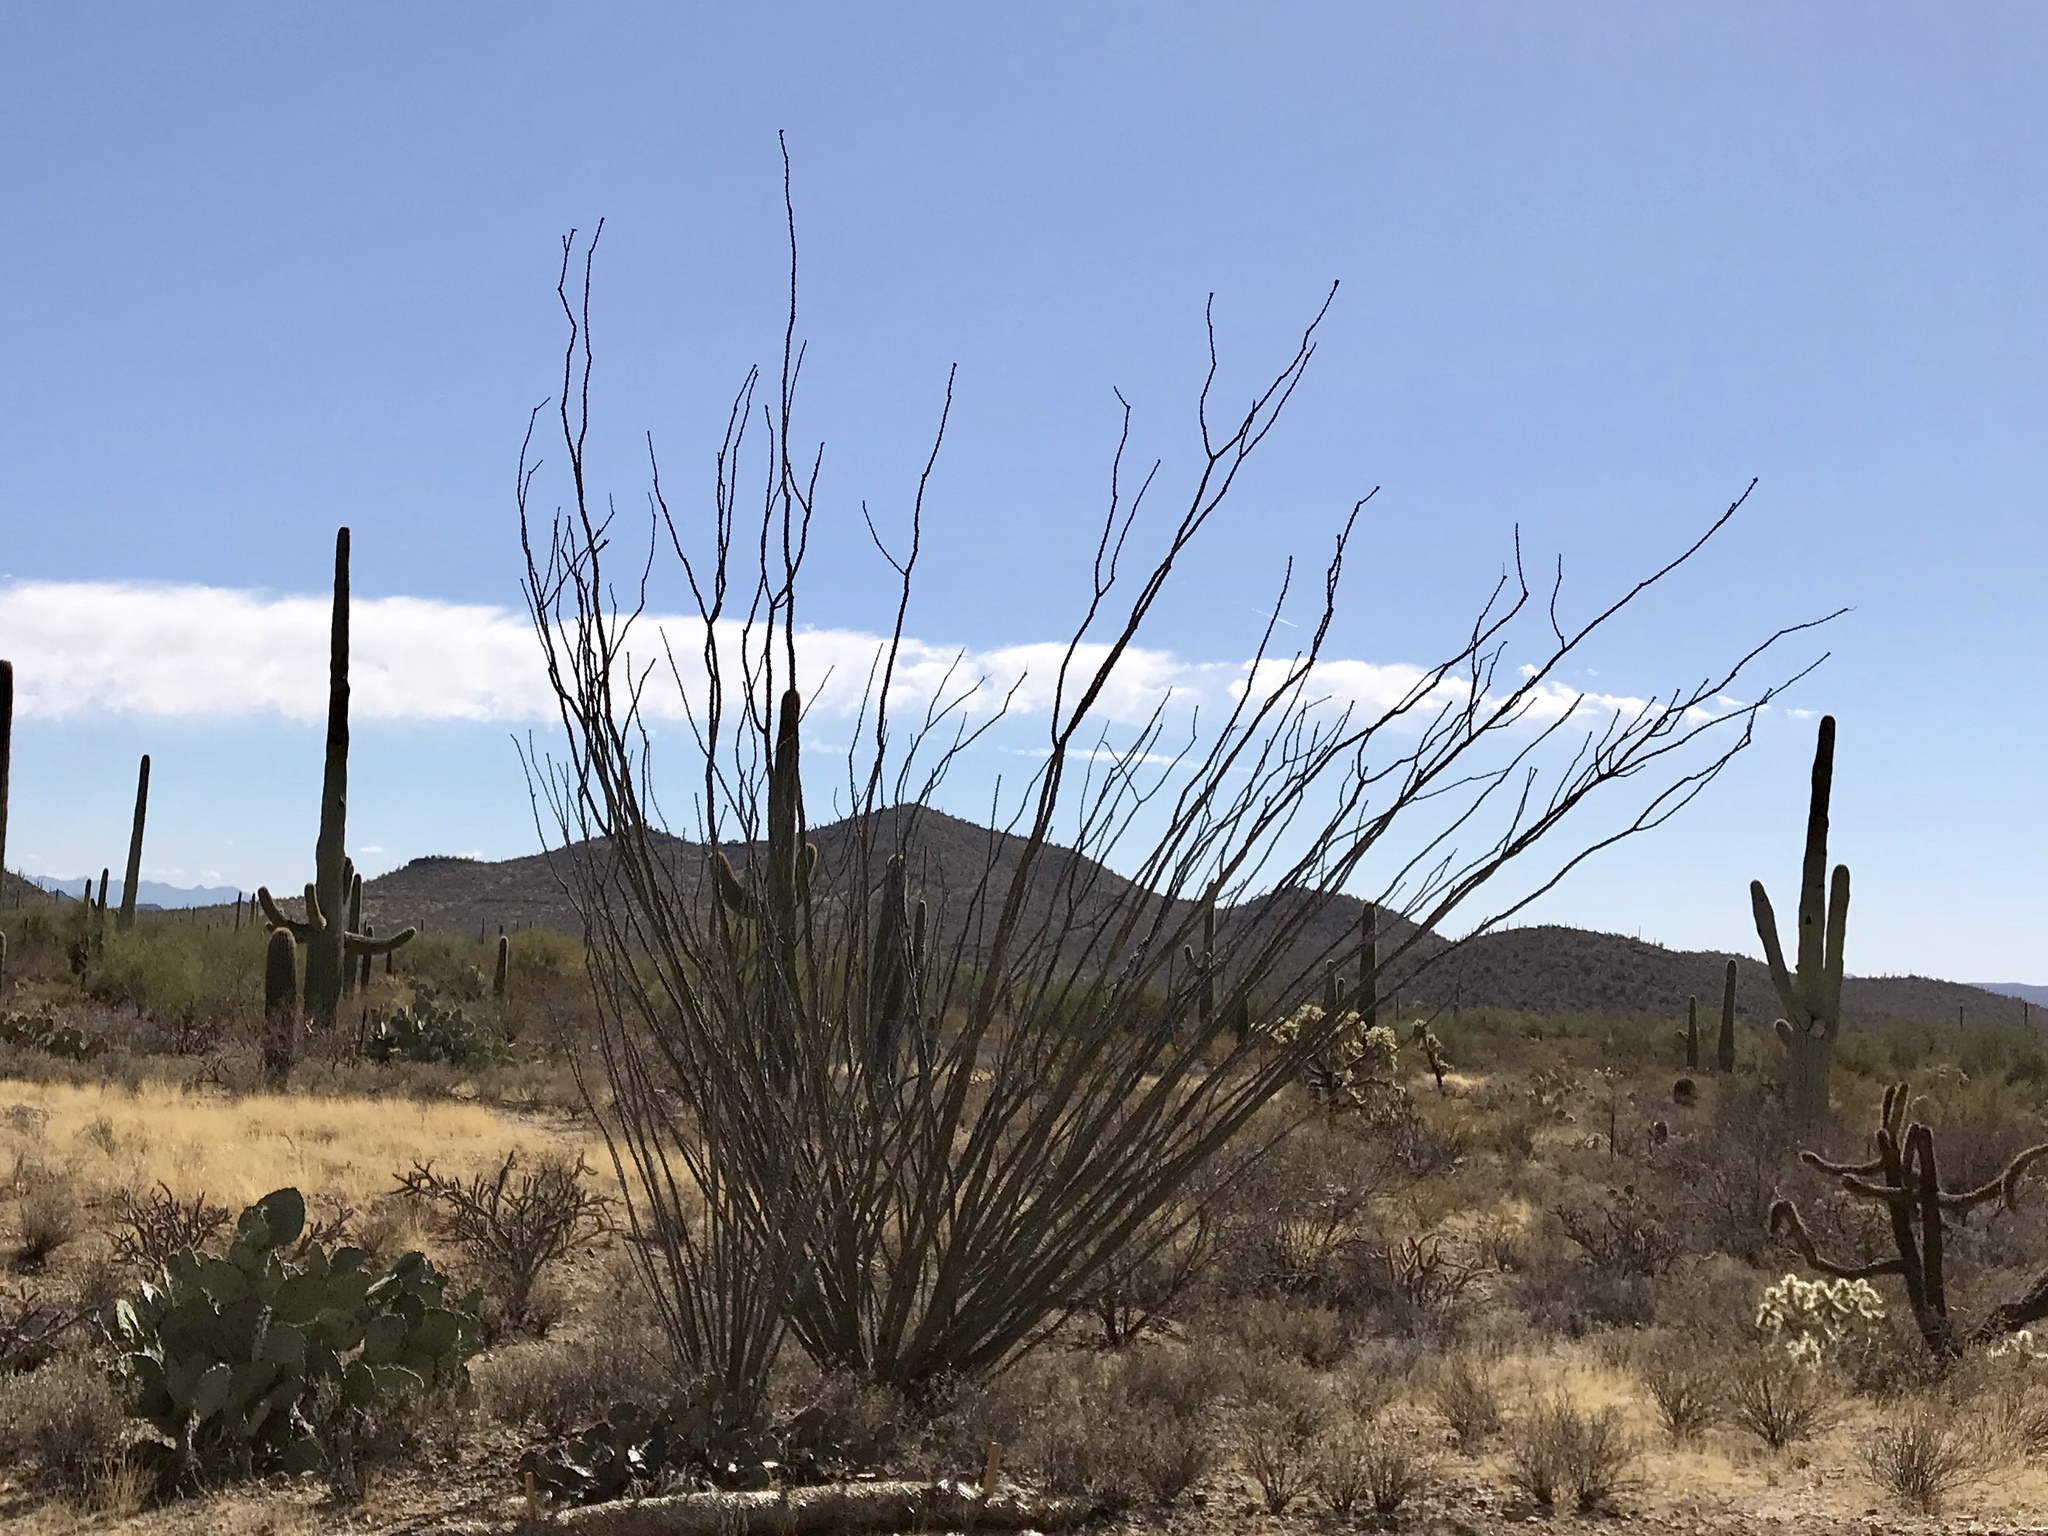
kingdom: Plantae
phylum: Tracheophyta
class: Magnoliopsida
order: Ericales
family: Fouquieriaceae
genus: Fouquieria
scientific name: Fouquieria splendens
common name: Vine-cactus
